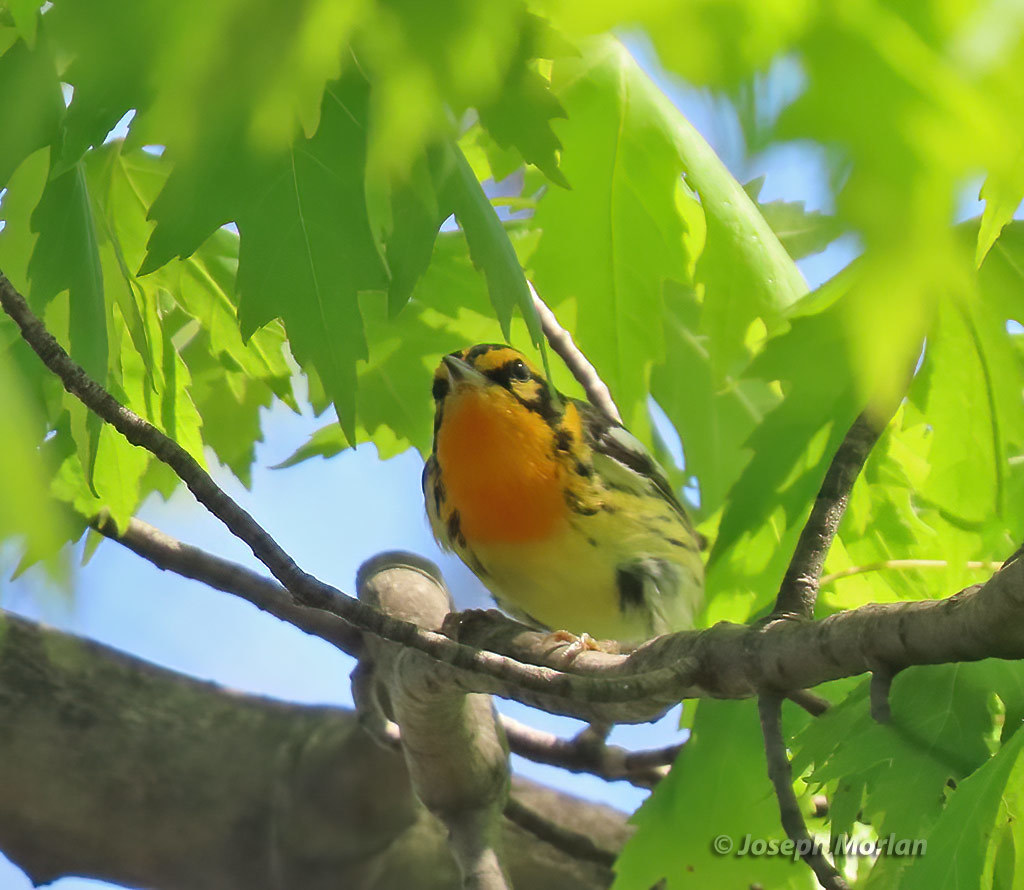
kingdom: Animalia
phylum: Chordata
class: Aves
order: Passeriformes
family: Parulidae
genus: Setophaga
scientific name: Setophaga fusca
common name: Blackburnian warbler
